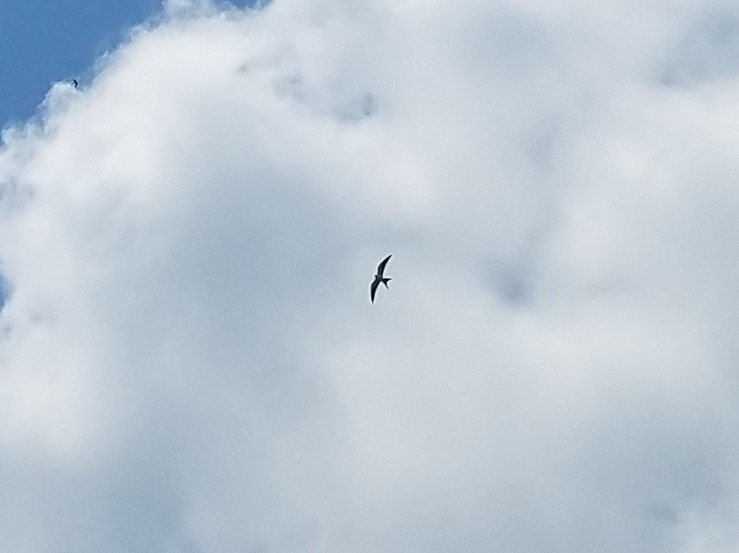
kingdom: Animalia
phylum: Chordata
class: Aves
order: Accipitriformes
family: Accipitridae
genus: Elanoides
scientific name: Elanoides forficatus
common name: Swallow-tailed kite
